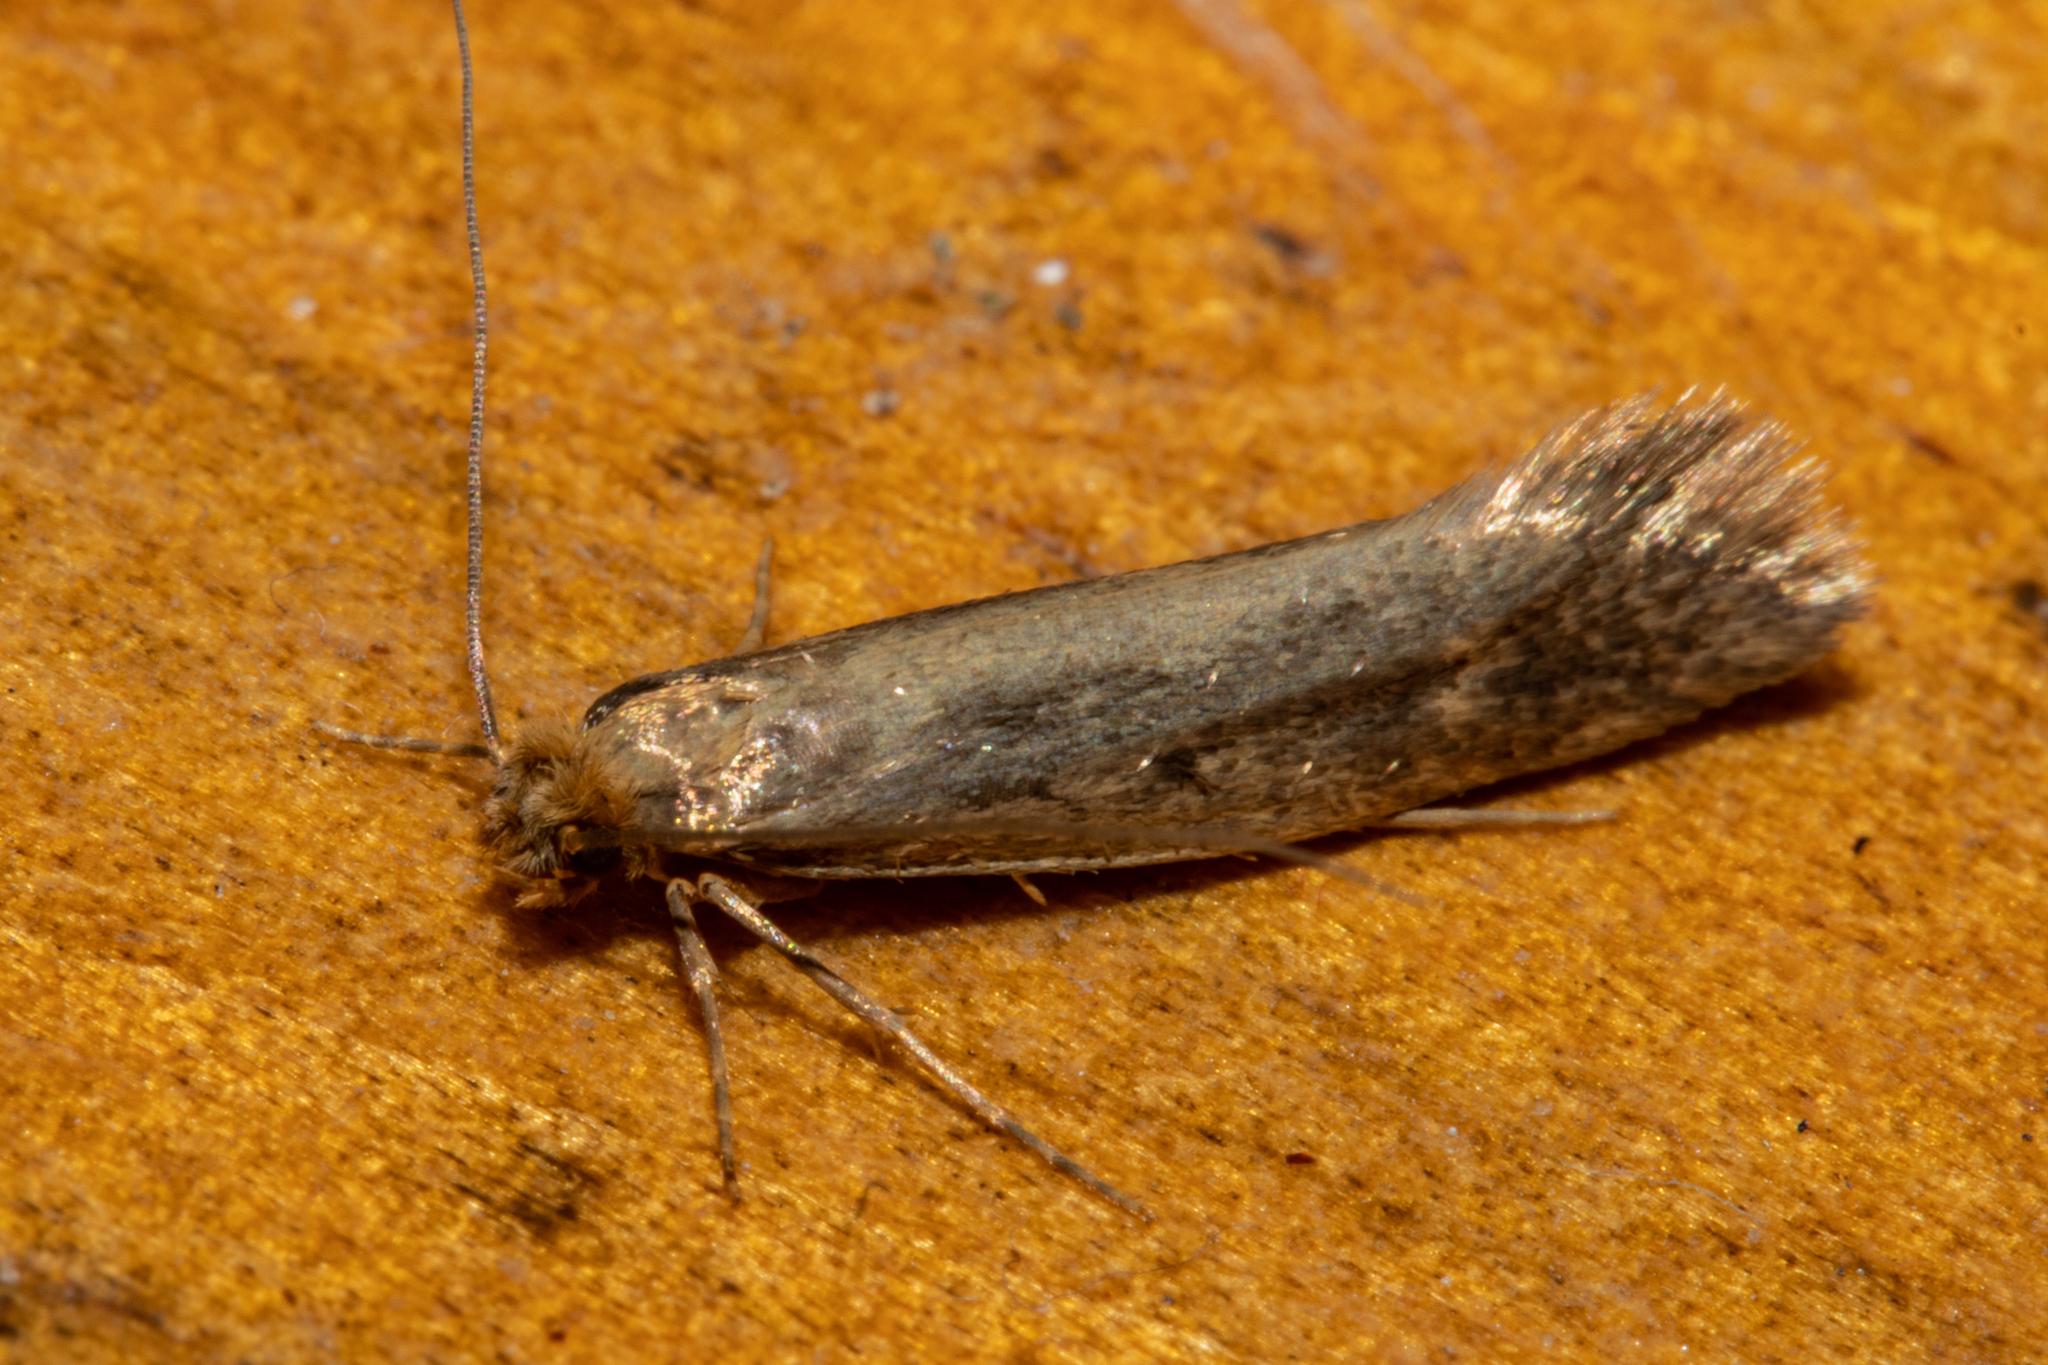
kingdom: Animalia
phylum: Arthropoda
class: Insecta
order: Lepidoptera
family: Tineidae
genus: Tinea
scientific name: Tinea pallescentella
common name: Large pale clothes moth
